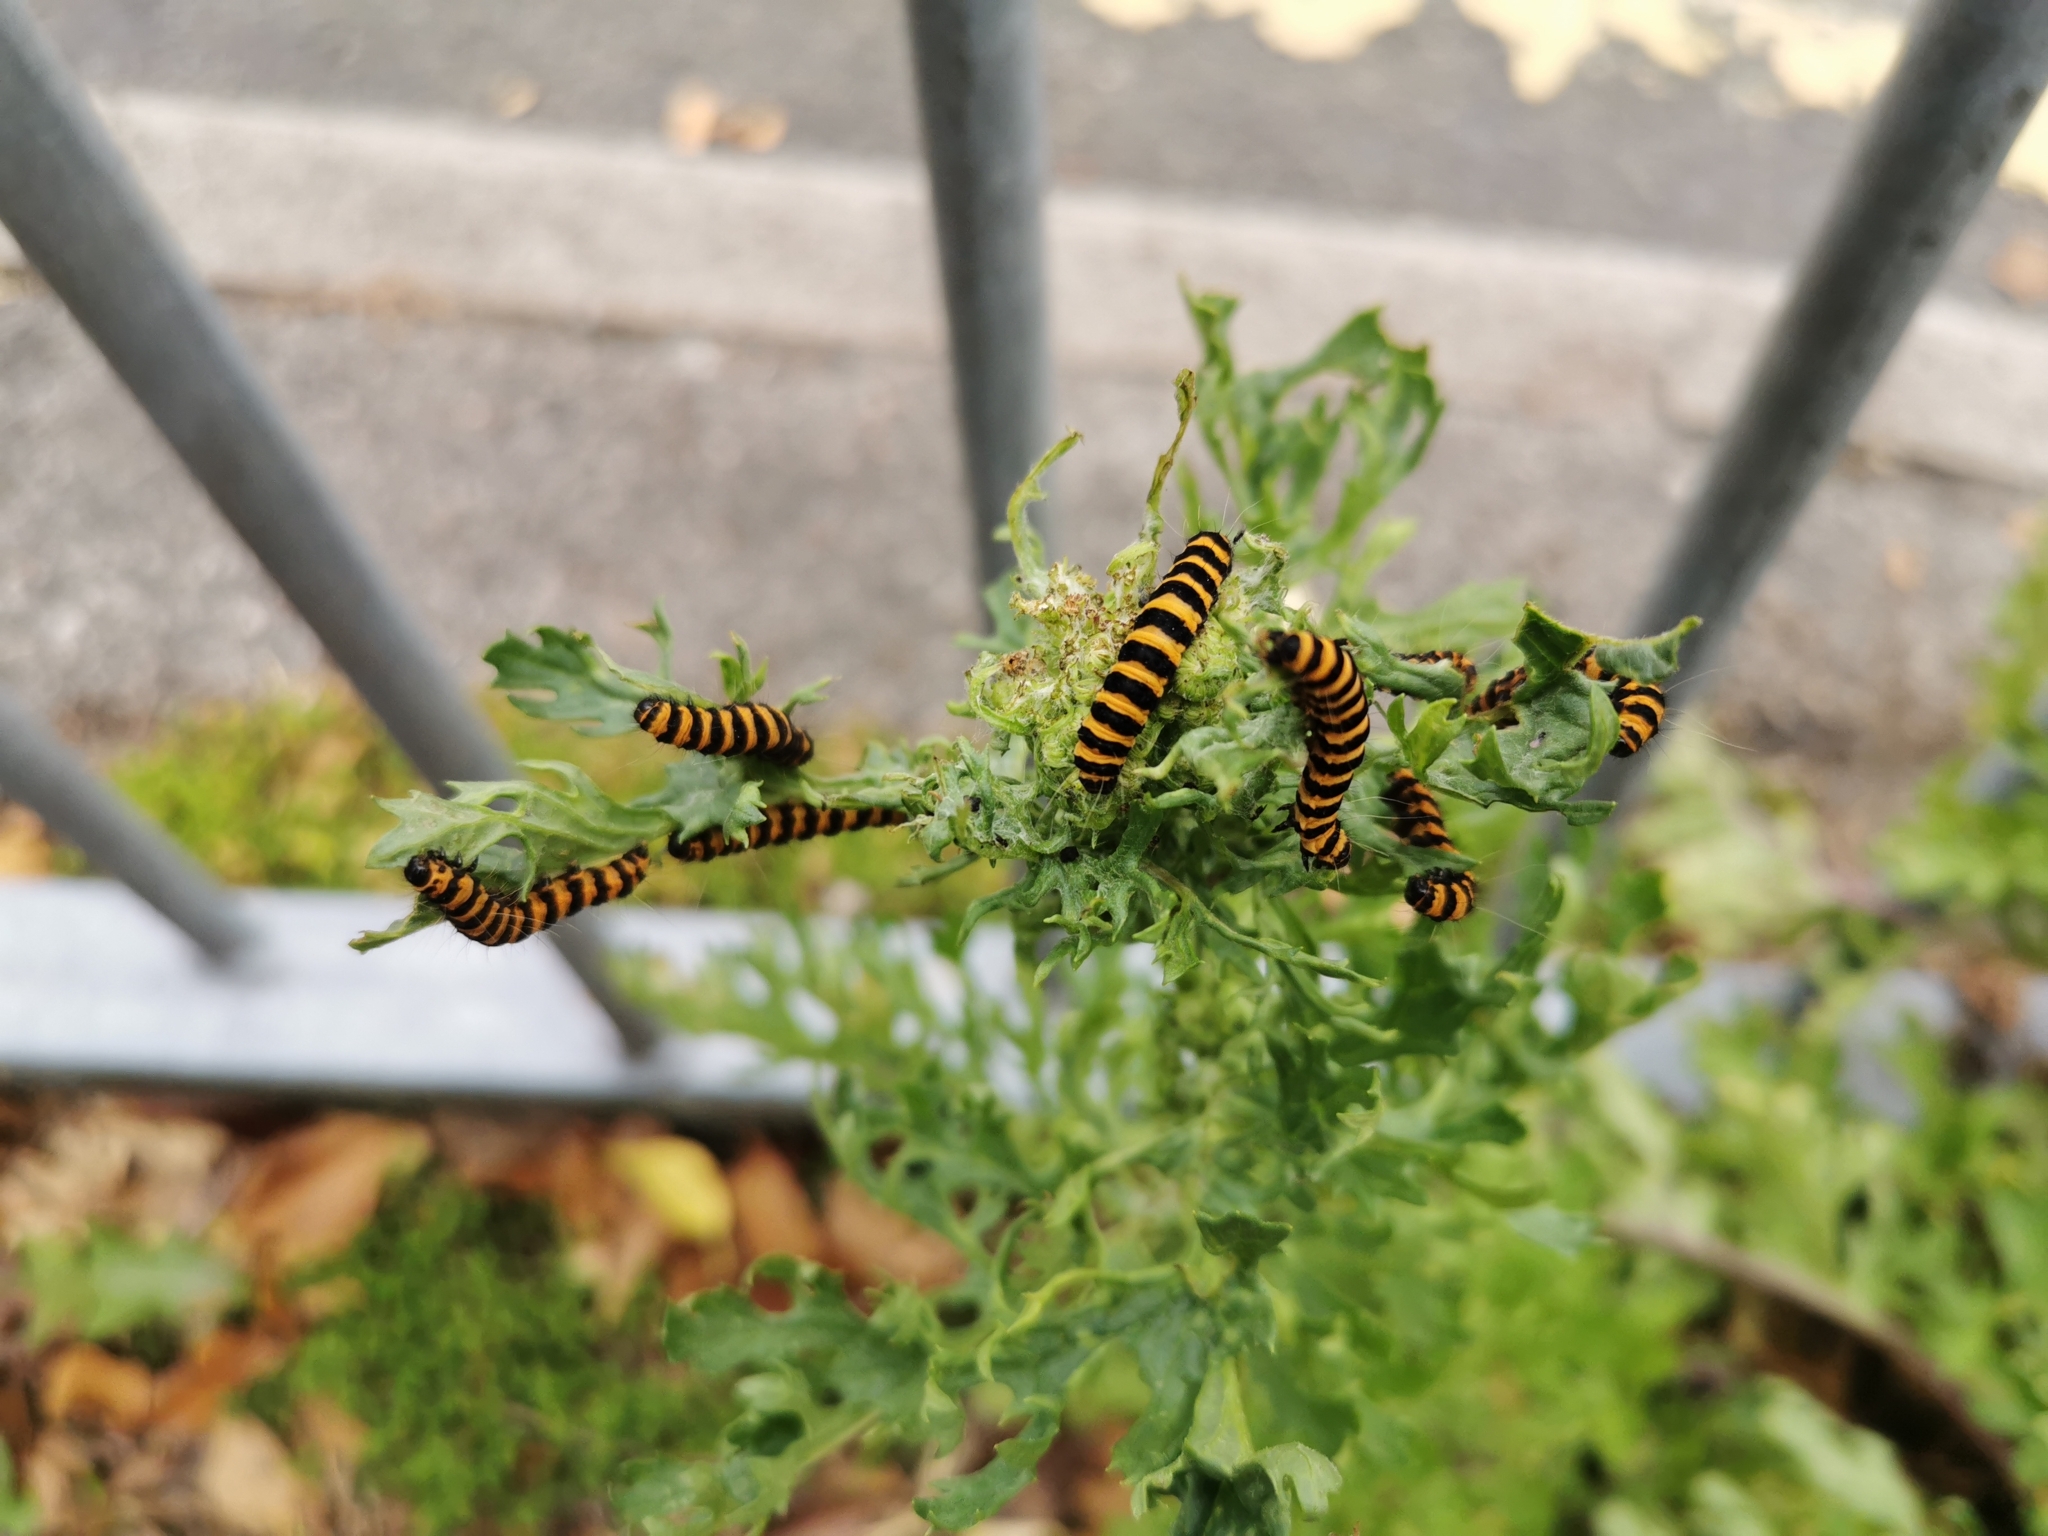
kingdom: Animalia
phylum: Arthropoda
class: Insecta
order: Lepidoptera
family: Erebidae
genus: Tyria
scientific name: Tyria jacobaeae
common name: Cinnabar
